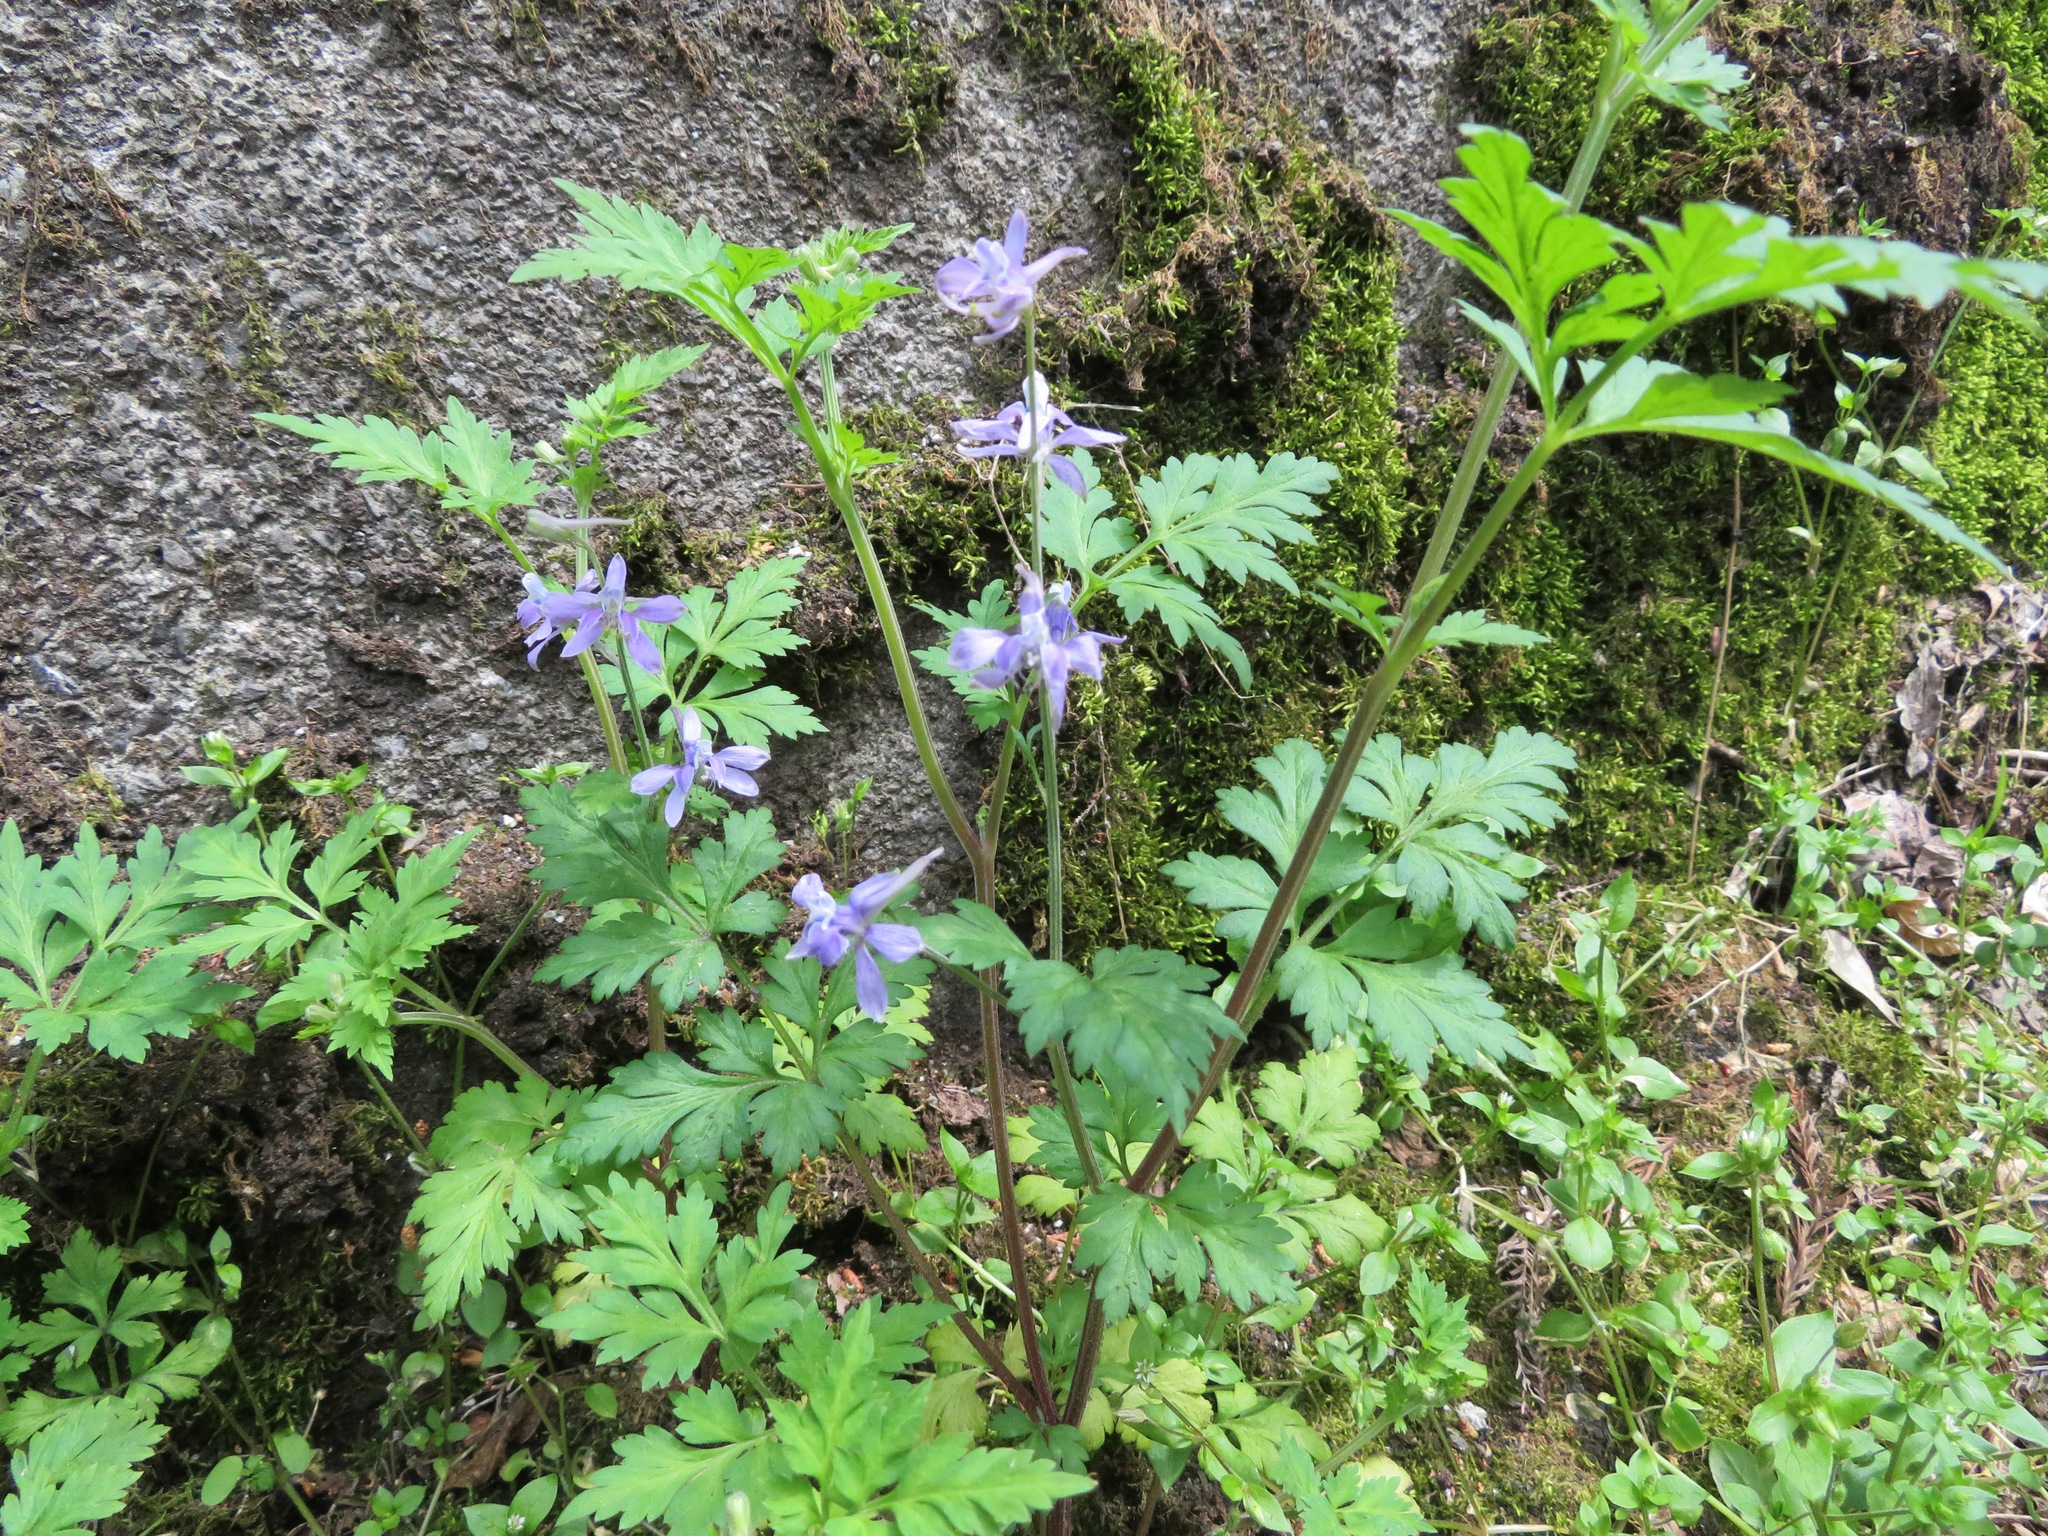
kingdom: Plantae
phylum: Tracheophyta
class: Magnoliopsida
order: Ranunculales
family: Ranunculaceae
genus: Delphinium
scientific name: Delphinium anthriscifolium
